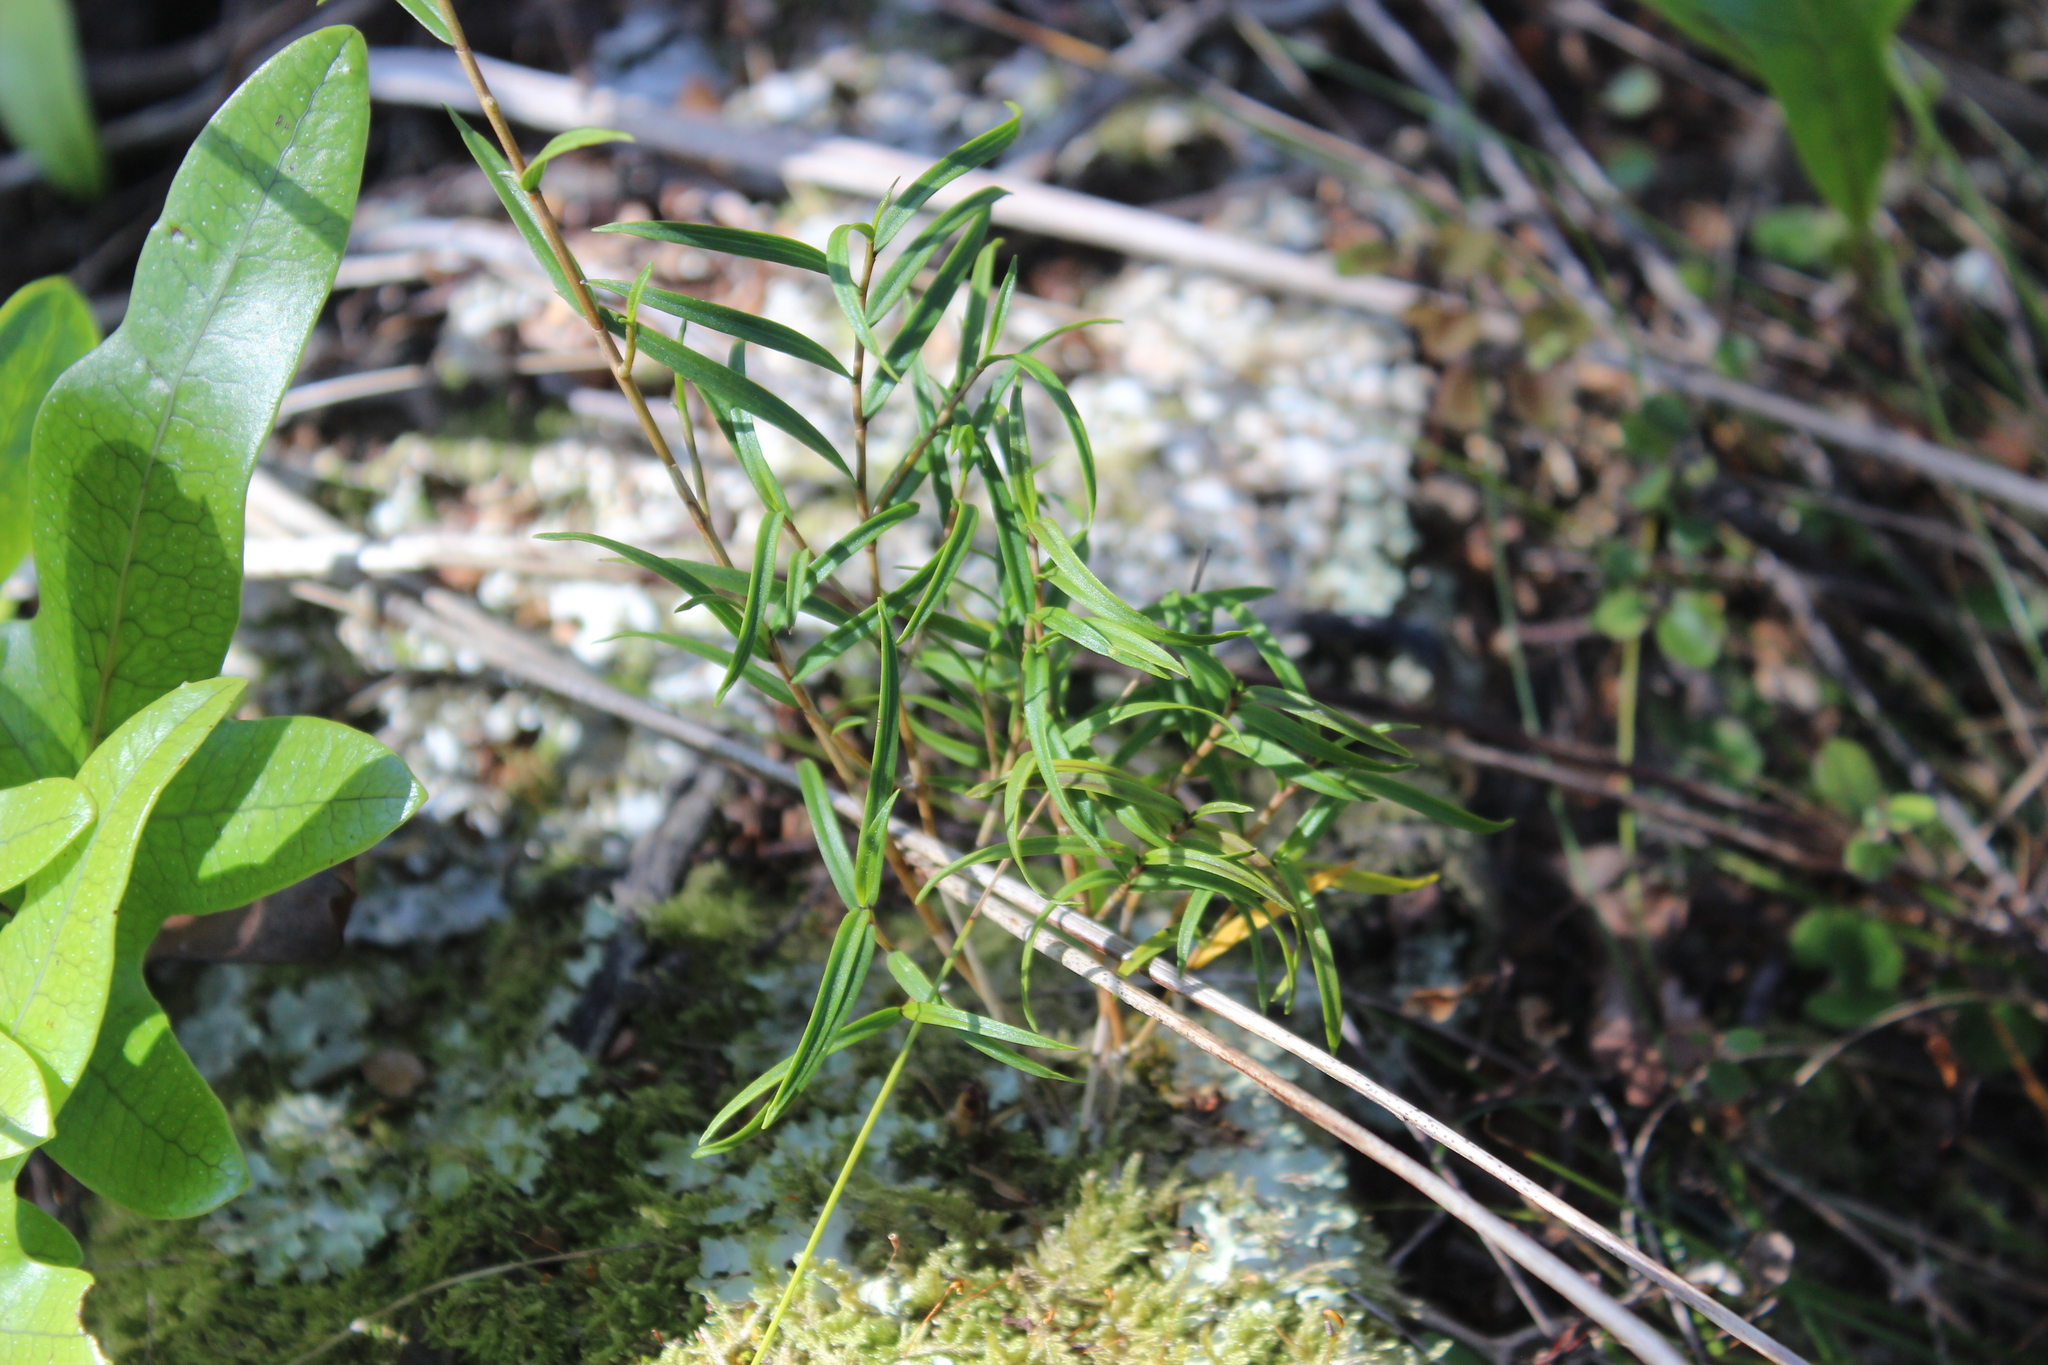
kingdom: Plantae
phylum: Tracheophyta
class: Liliopsida
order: Asparagales
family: Orchidaceae
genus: Dendrobium
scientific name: Dendrobium cunninghamii
